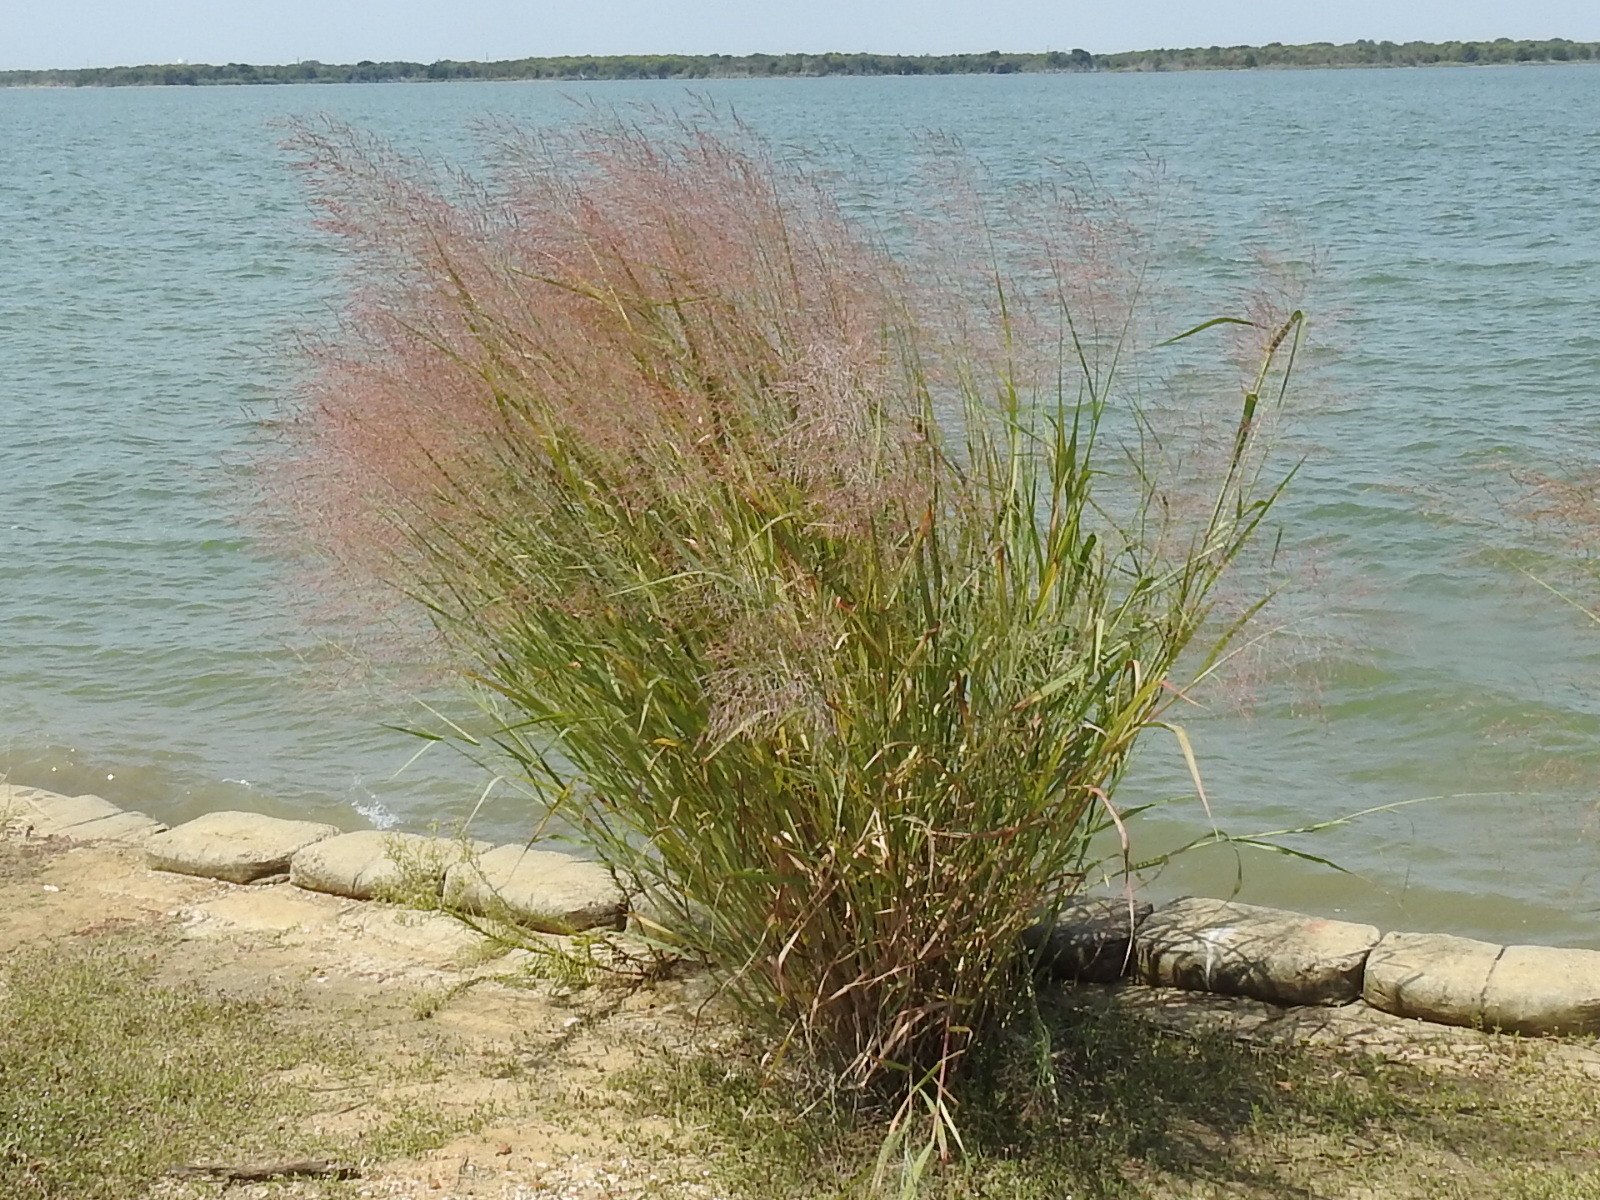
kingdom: Plantae
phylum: Tracheophyta
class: Liliopsida
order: Poales
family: Poaceae
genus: Panicum
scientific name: Panicum virgatum
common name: Switchgrass
